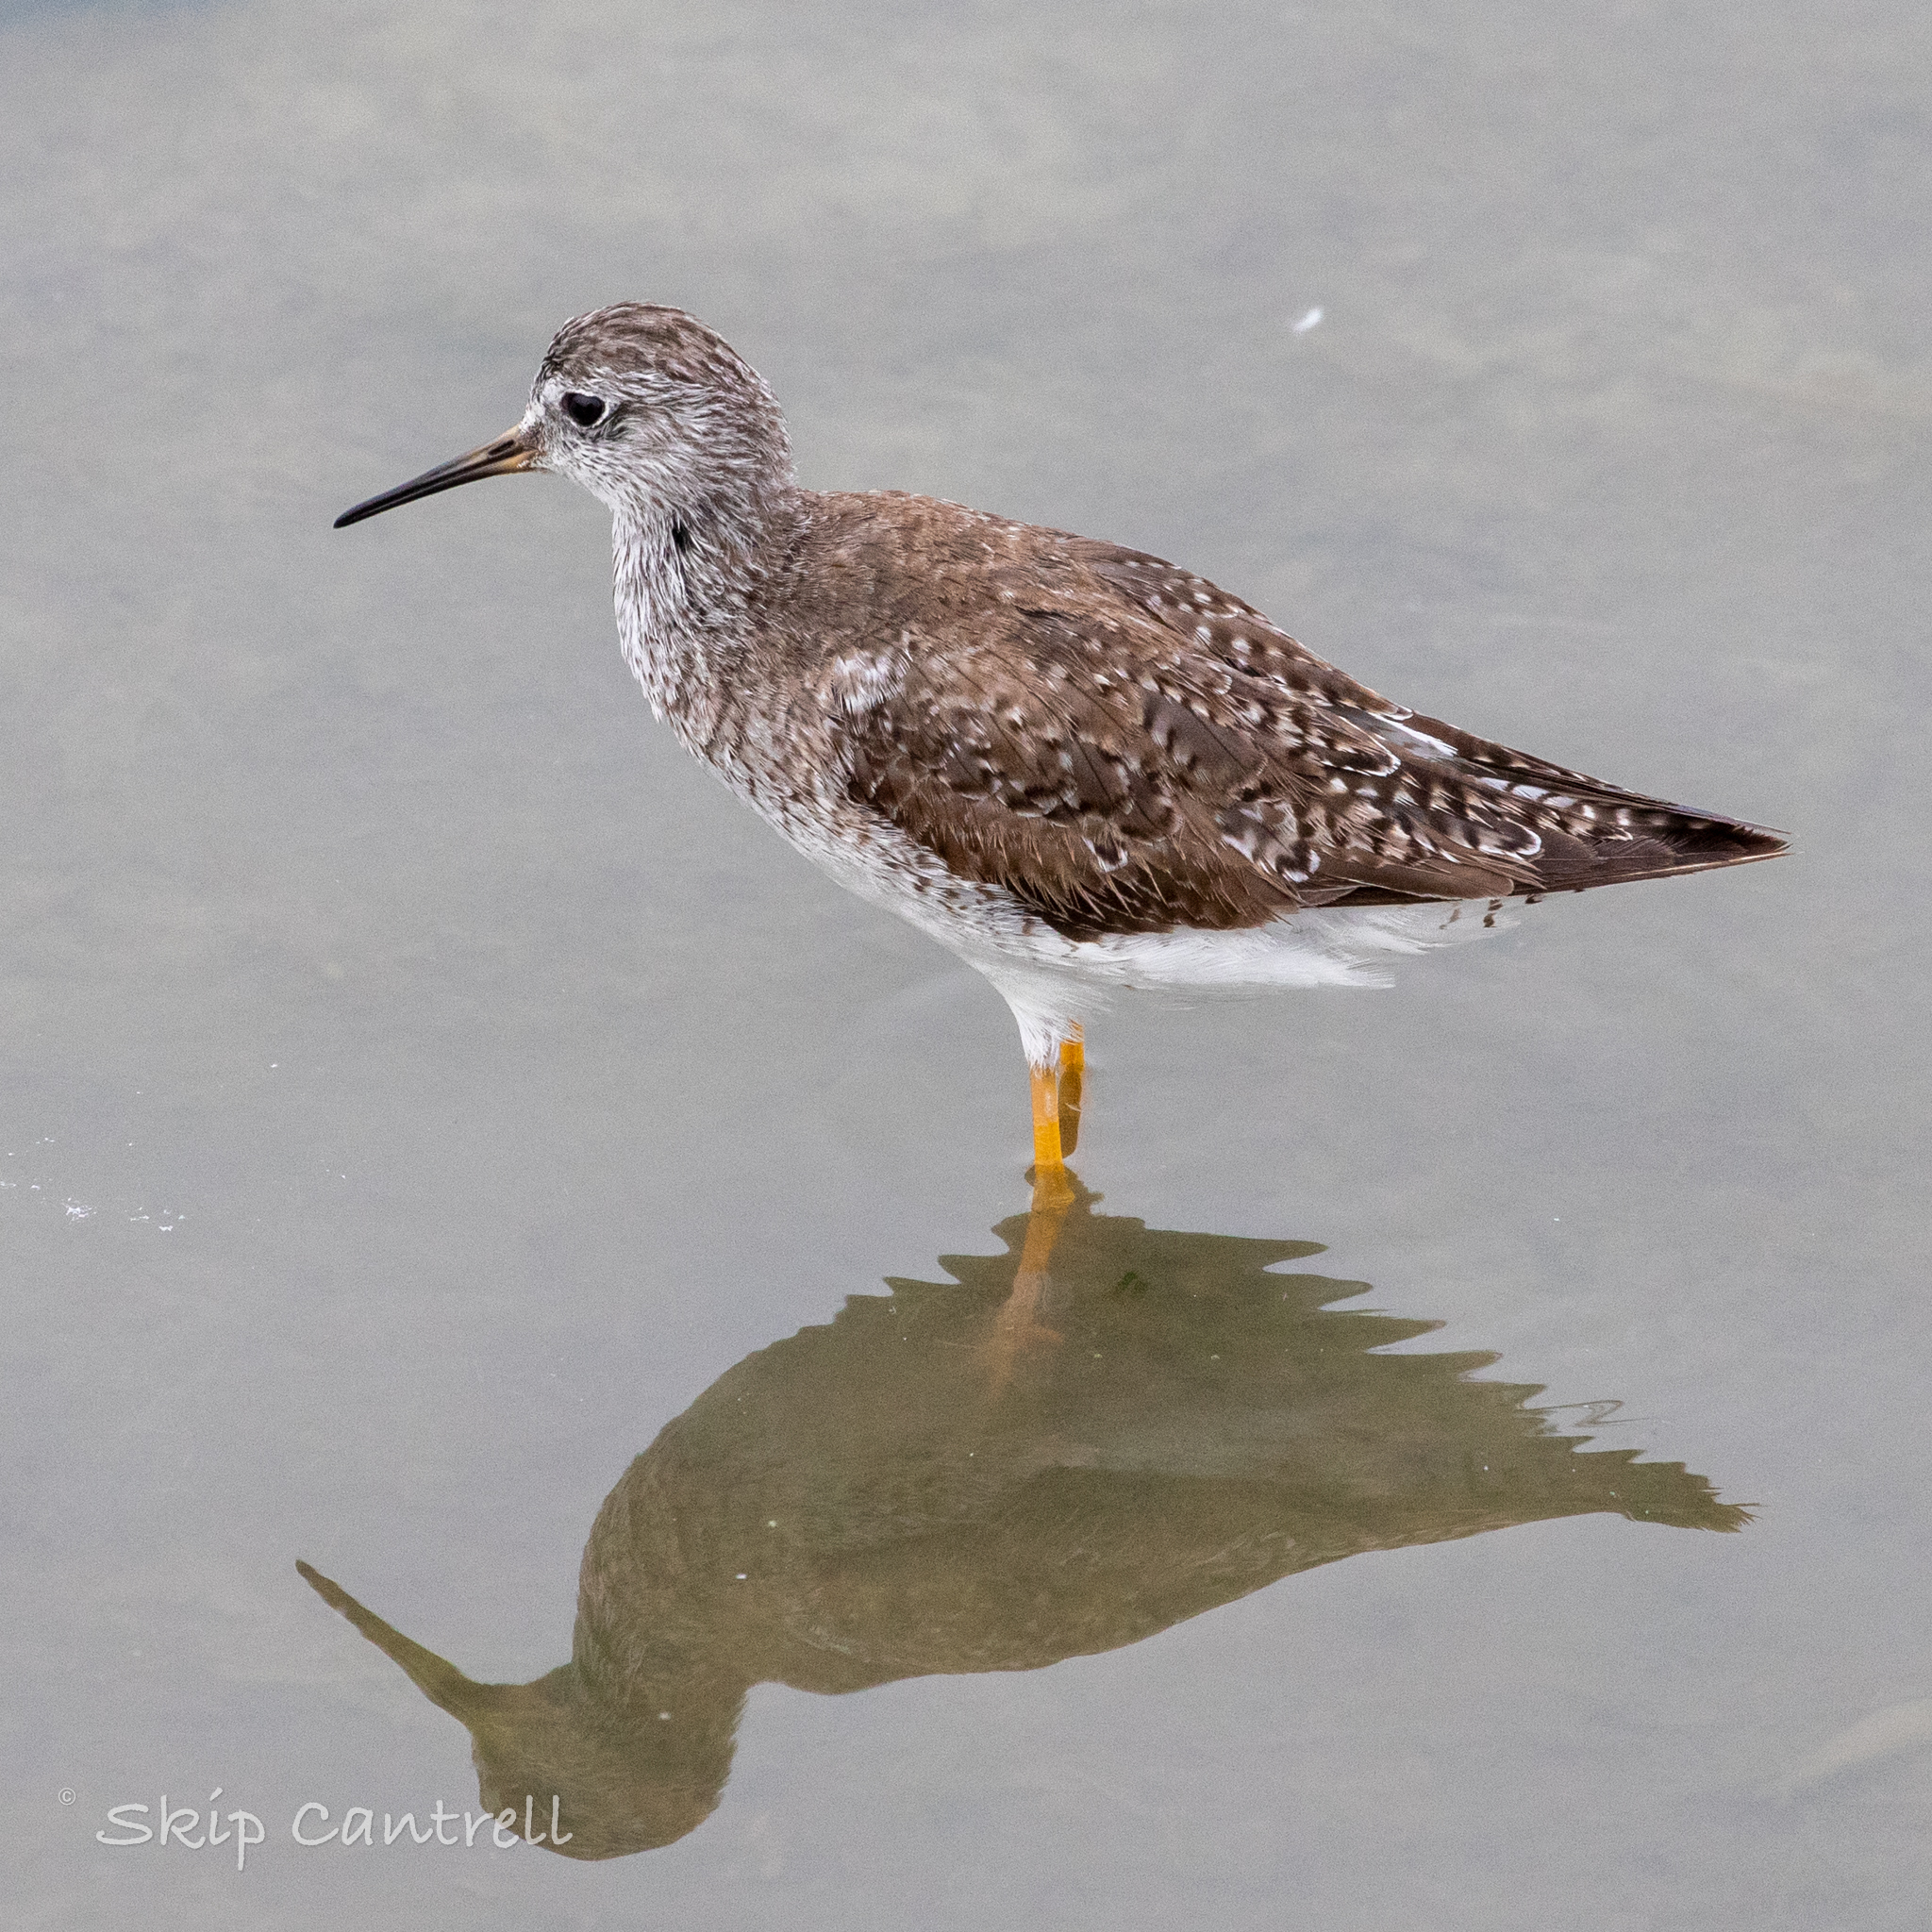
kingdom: Animalia
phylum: Chordata
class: Aves
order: Charadriiformes
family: Scolopacidae
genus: Tringa
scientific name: Tringa flavipes
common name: Lesser yellowlegs
